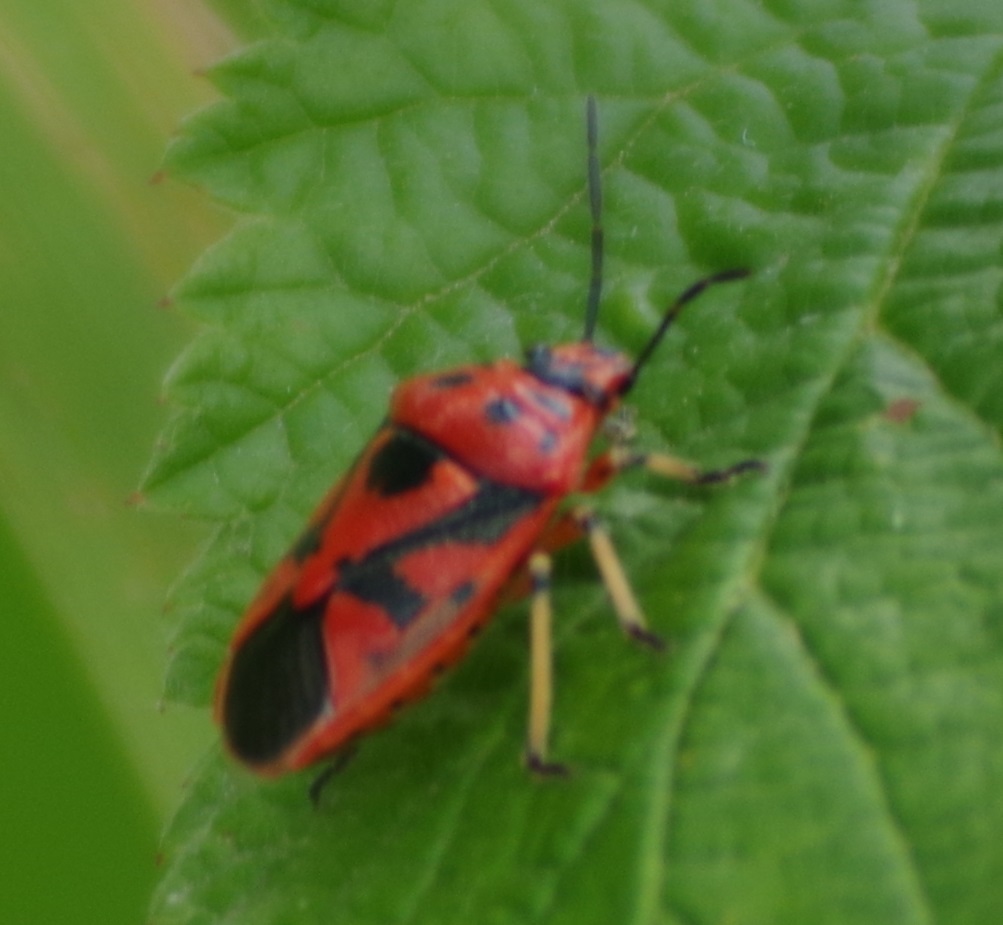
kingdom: Animalia
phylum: Arthropoda
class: Insecta
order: Hemiptera
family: Pentatomidae
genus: Eurydema
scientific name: Eurydema ornata
